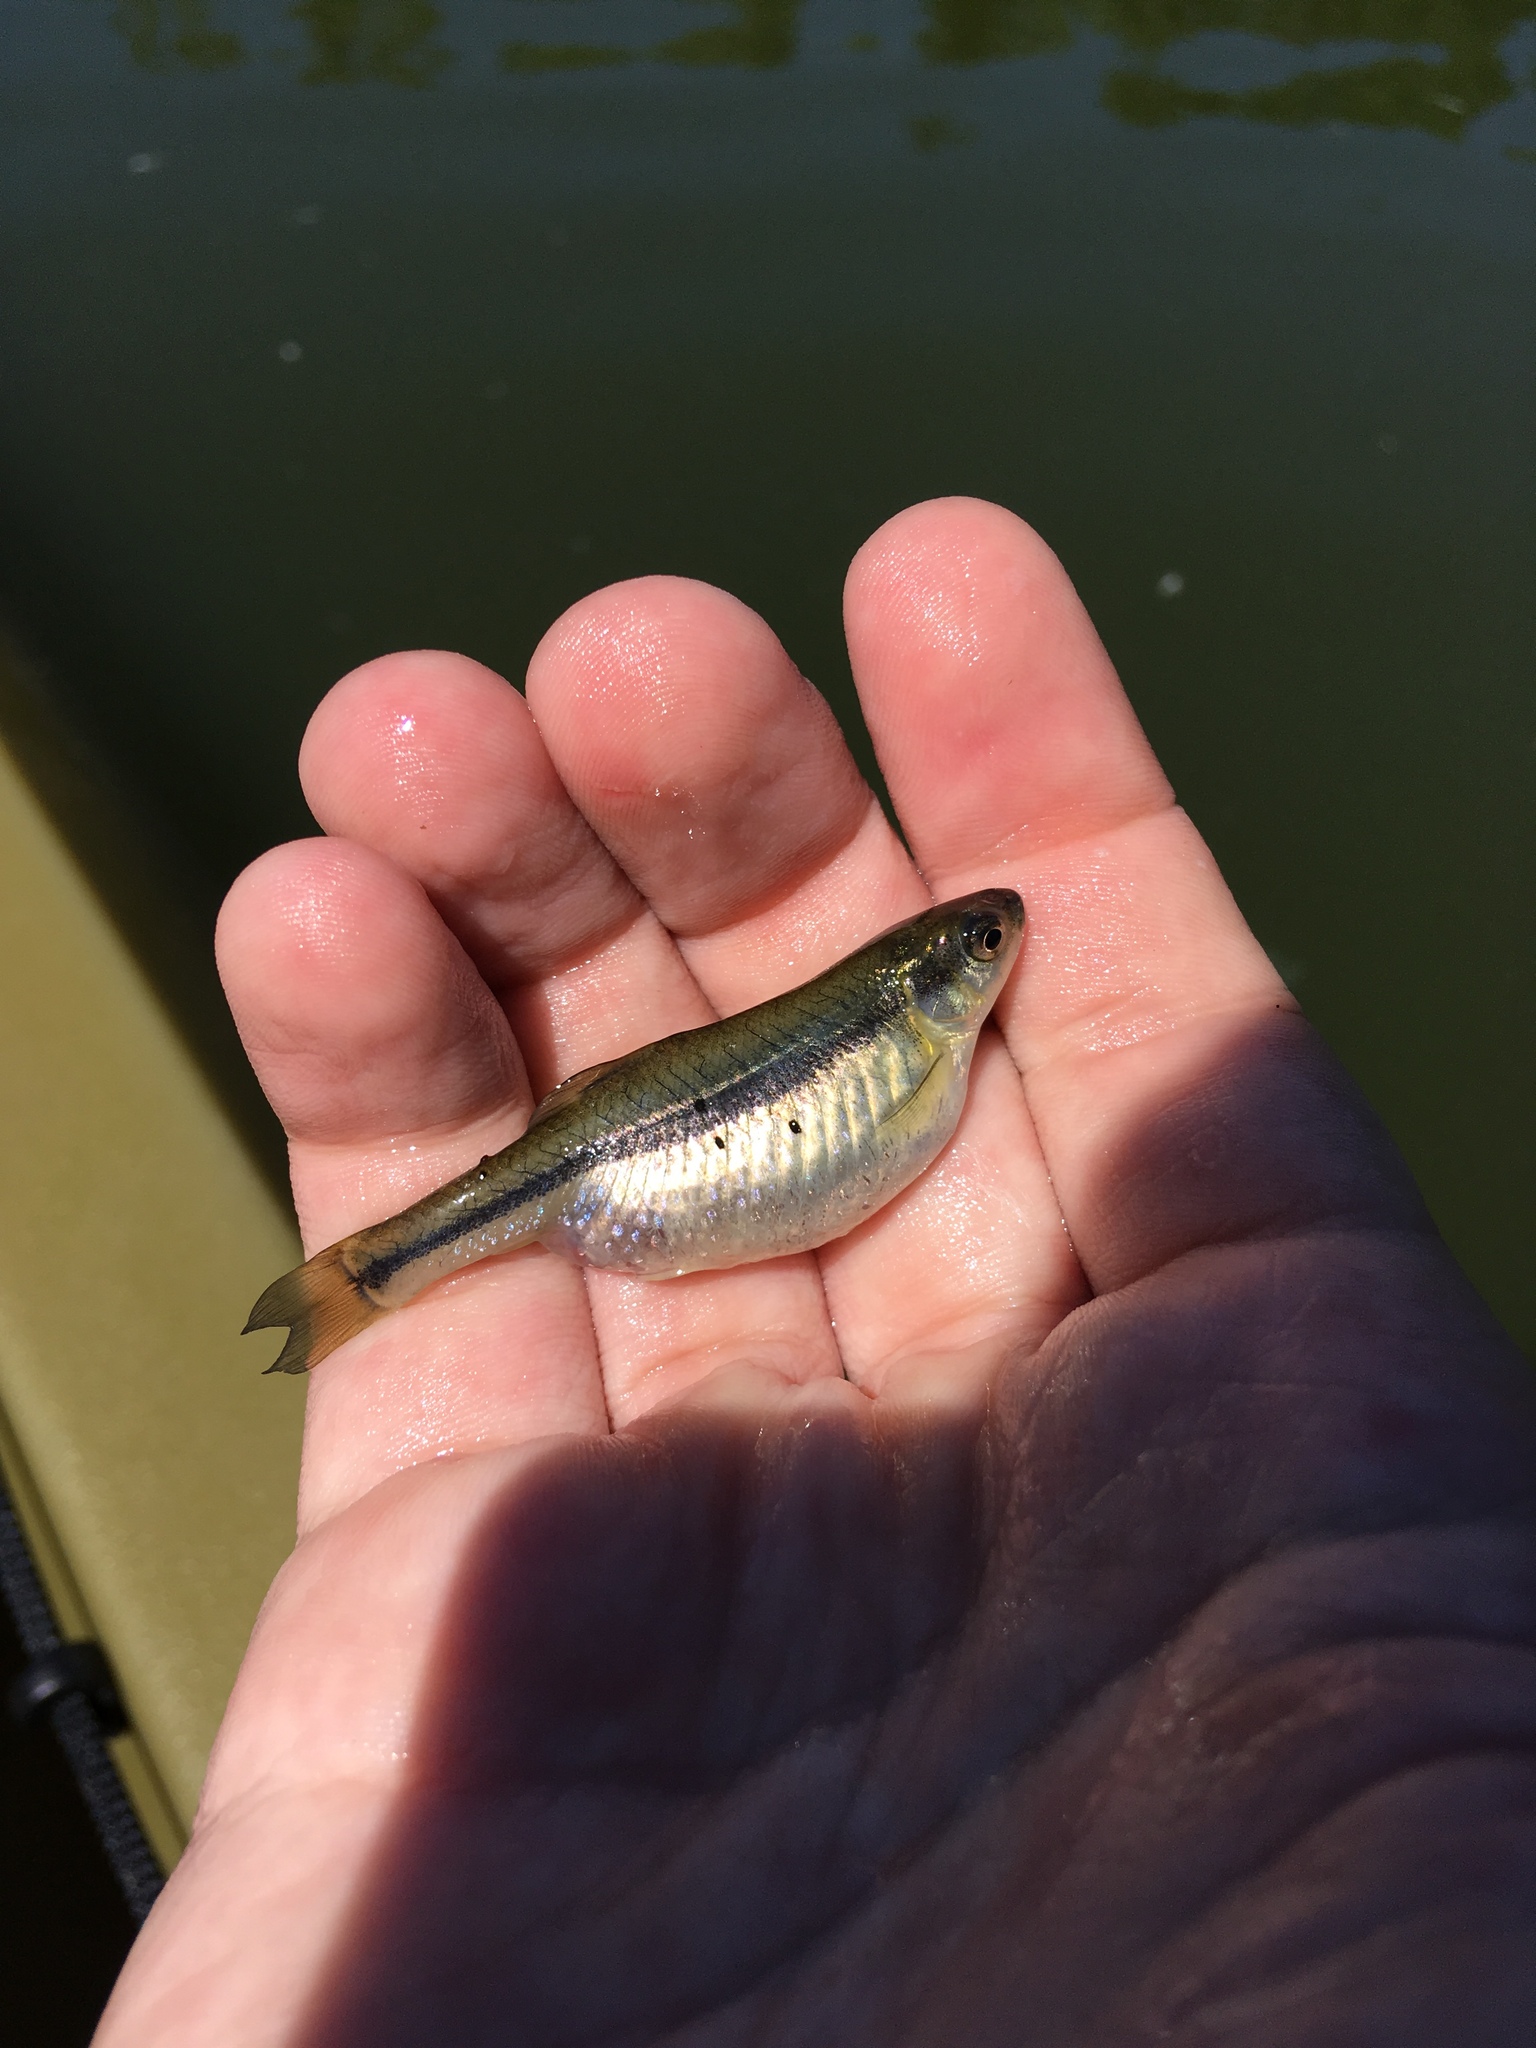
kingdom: Animalia
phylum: Chordata
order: Cypriniformes
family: Cyprinidae
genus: Pimephales
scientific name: Pimephales promelas
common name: Fathead minnow
